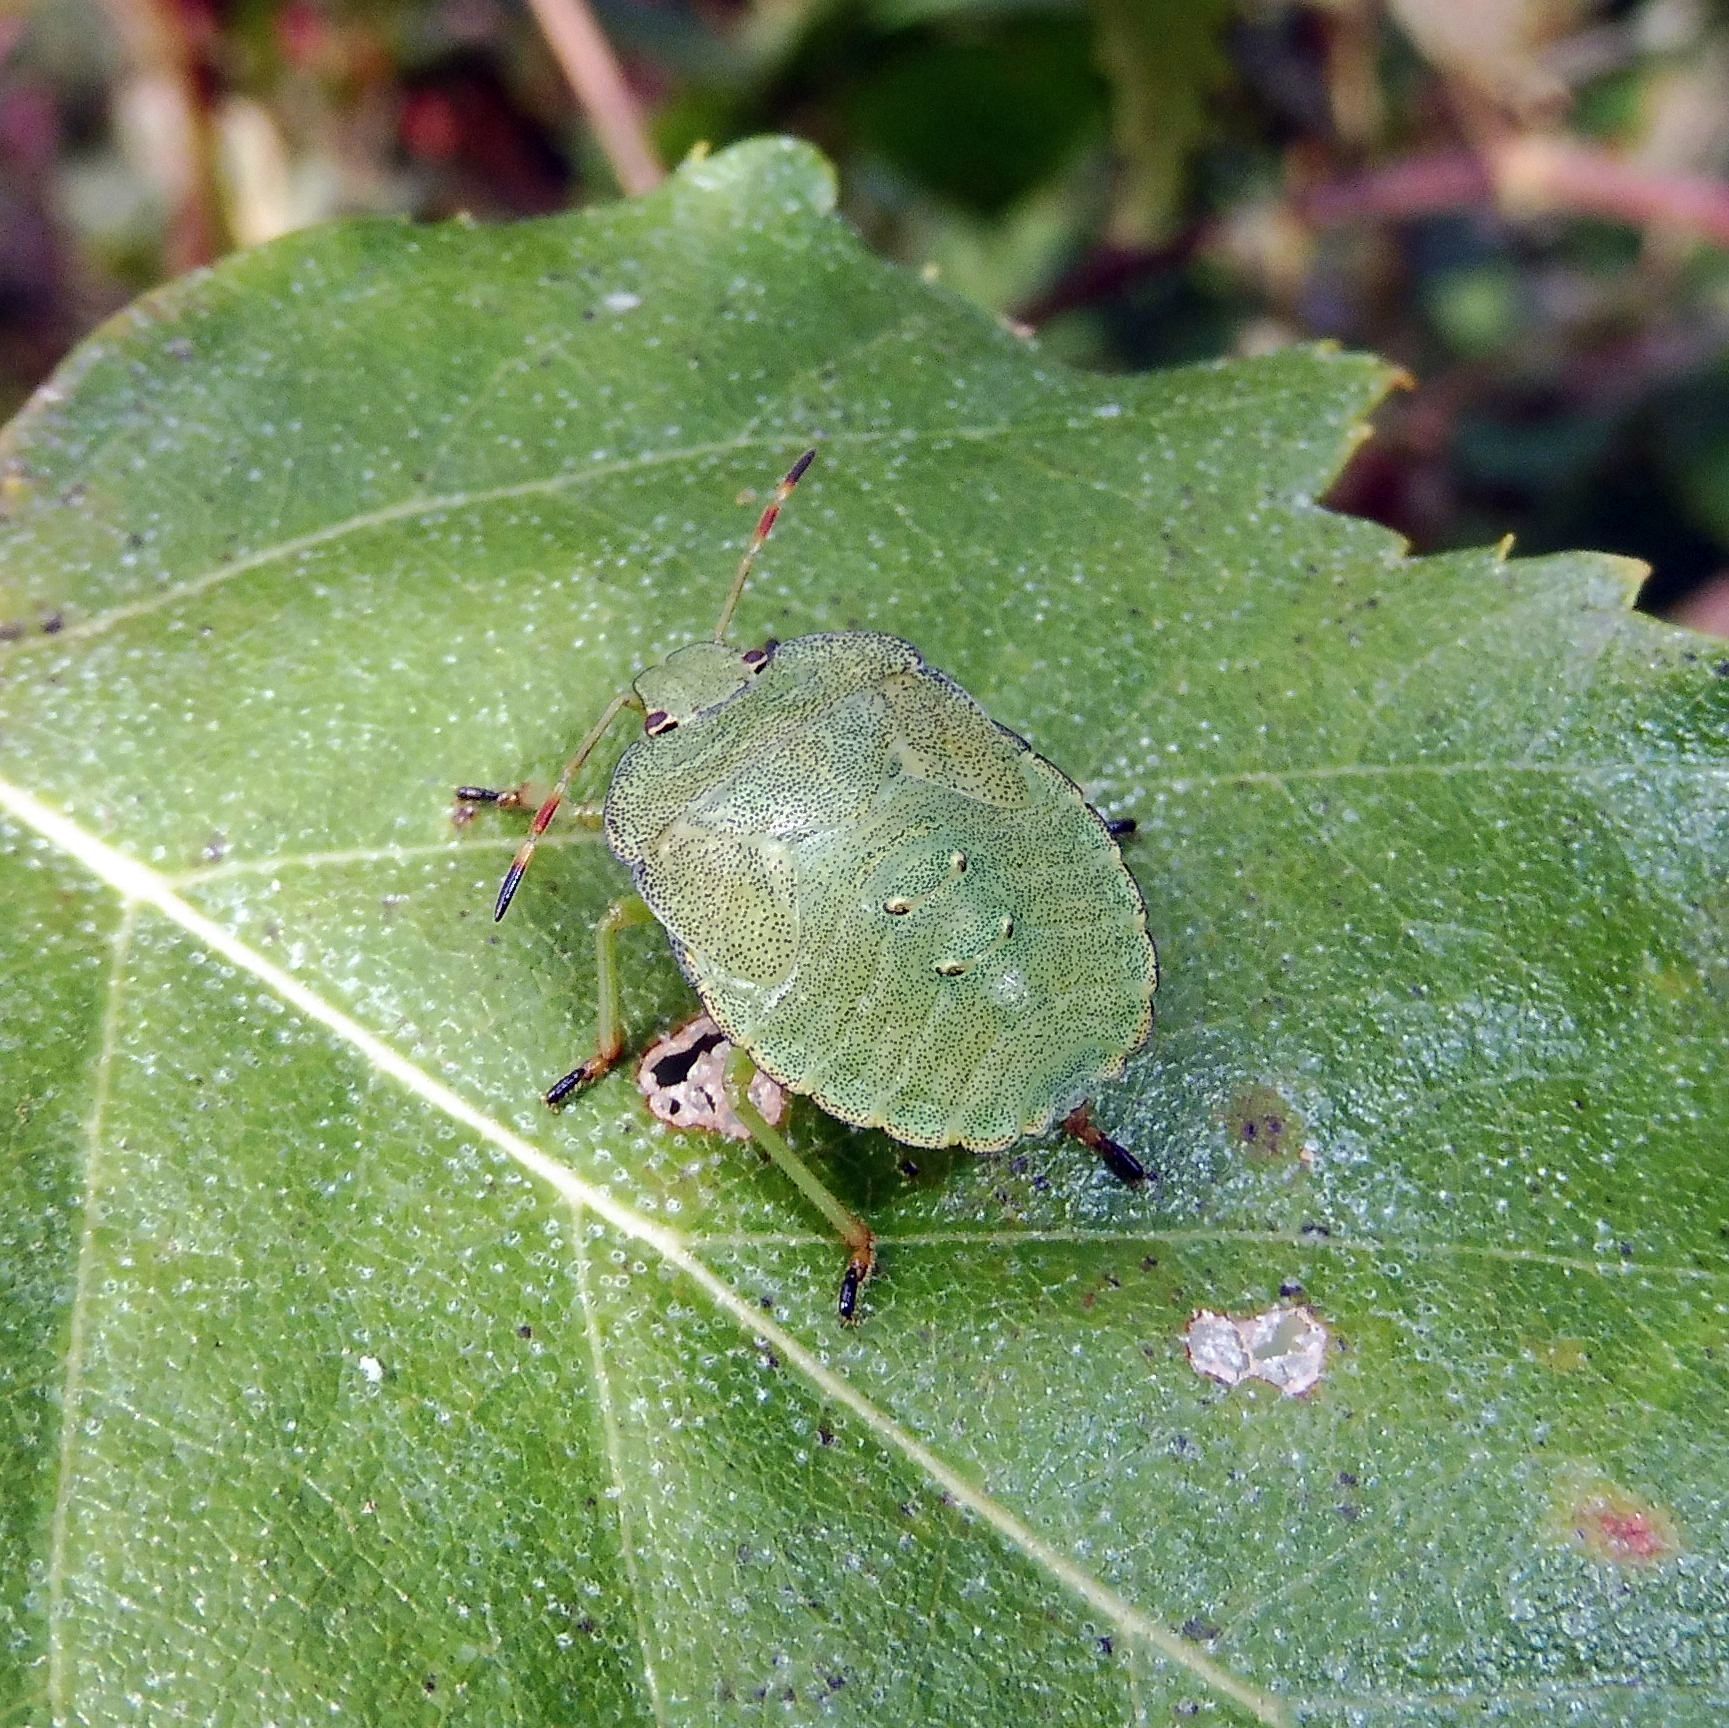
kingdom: Animalia
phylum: Arthropoda
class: Insecta
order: Hemiptera
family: Pentatomidae
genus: Palomena
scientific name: Palomena prasina
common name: Green shieldbug
